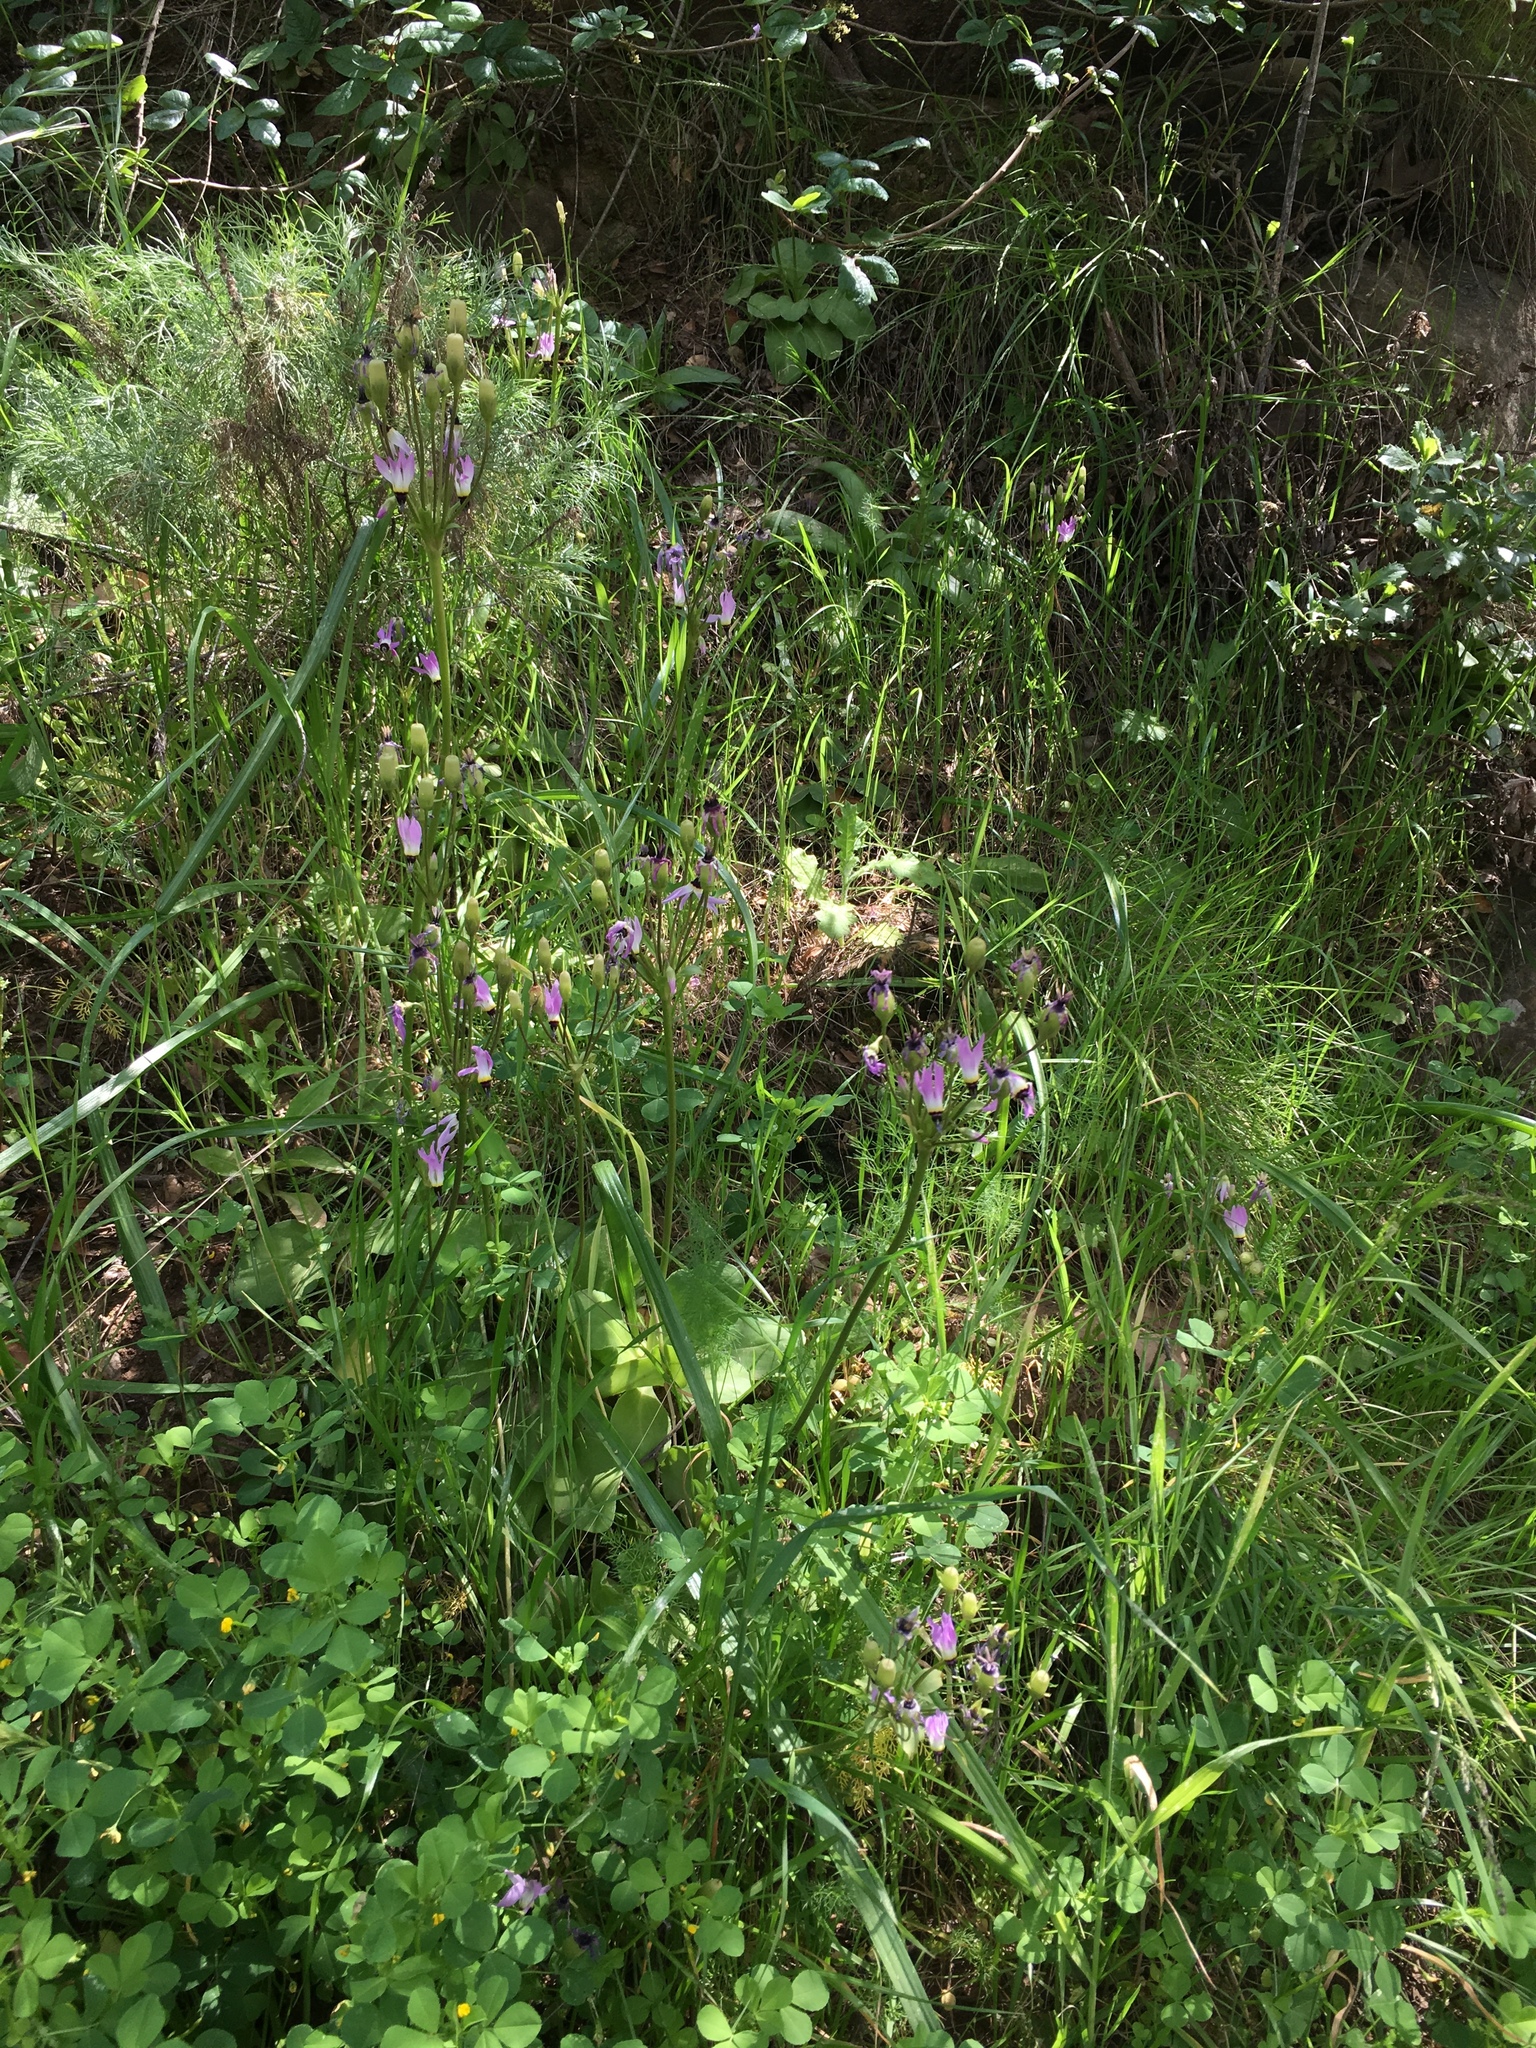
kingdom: Plantae
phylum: Tracheophyta
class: Magnoliopsida
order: Ericales
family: Primulaceae
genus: Dodecatheon
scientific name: Dodecatheon clevelandii
